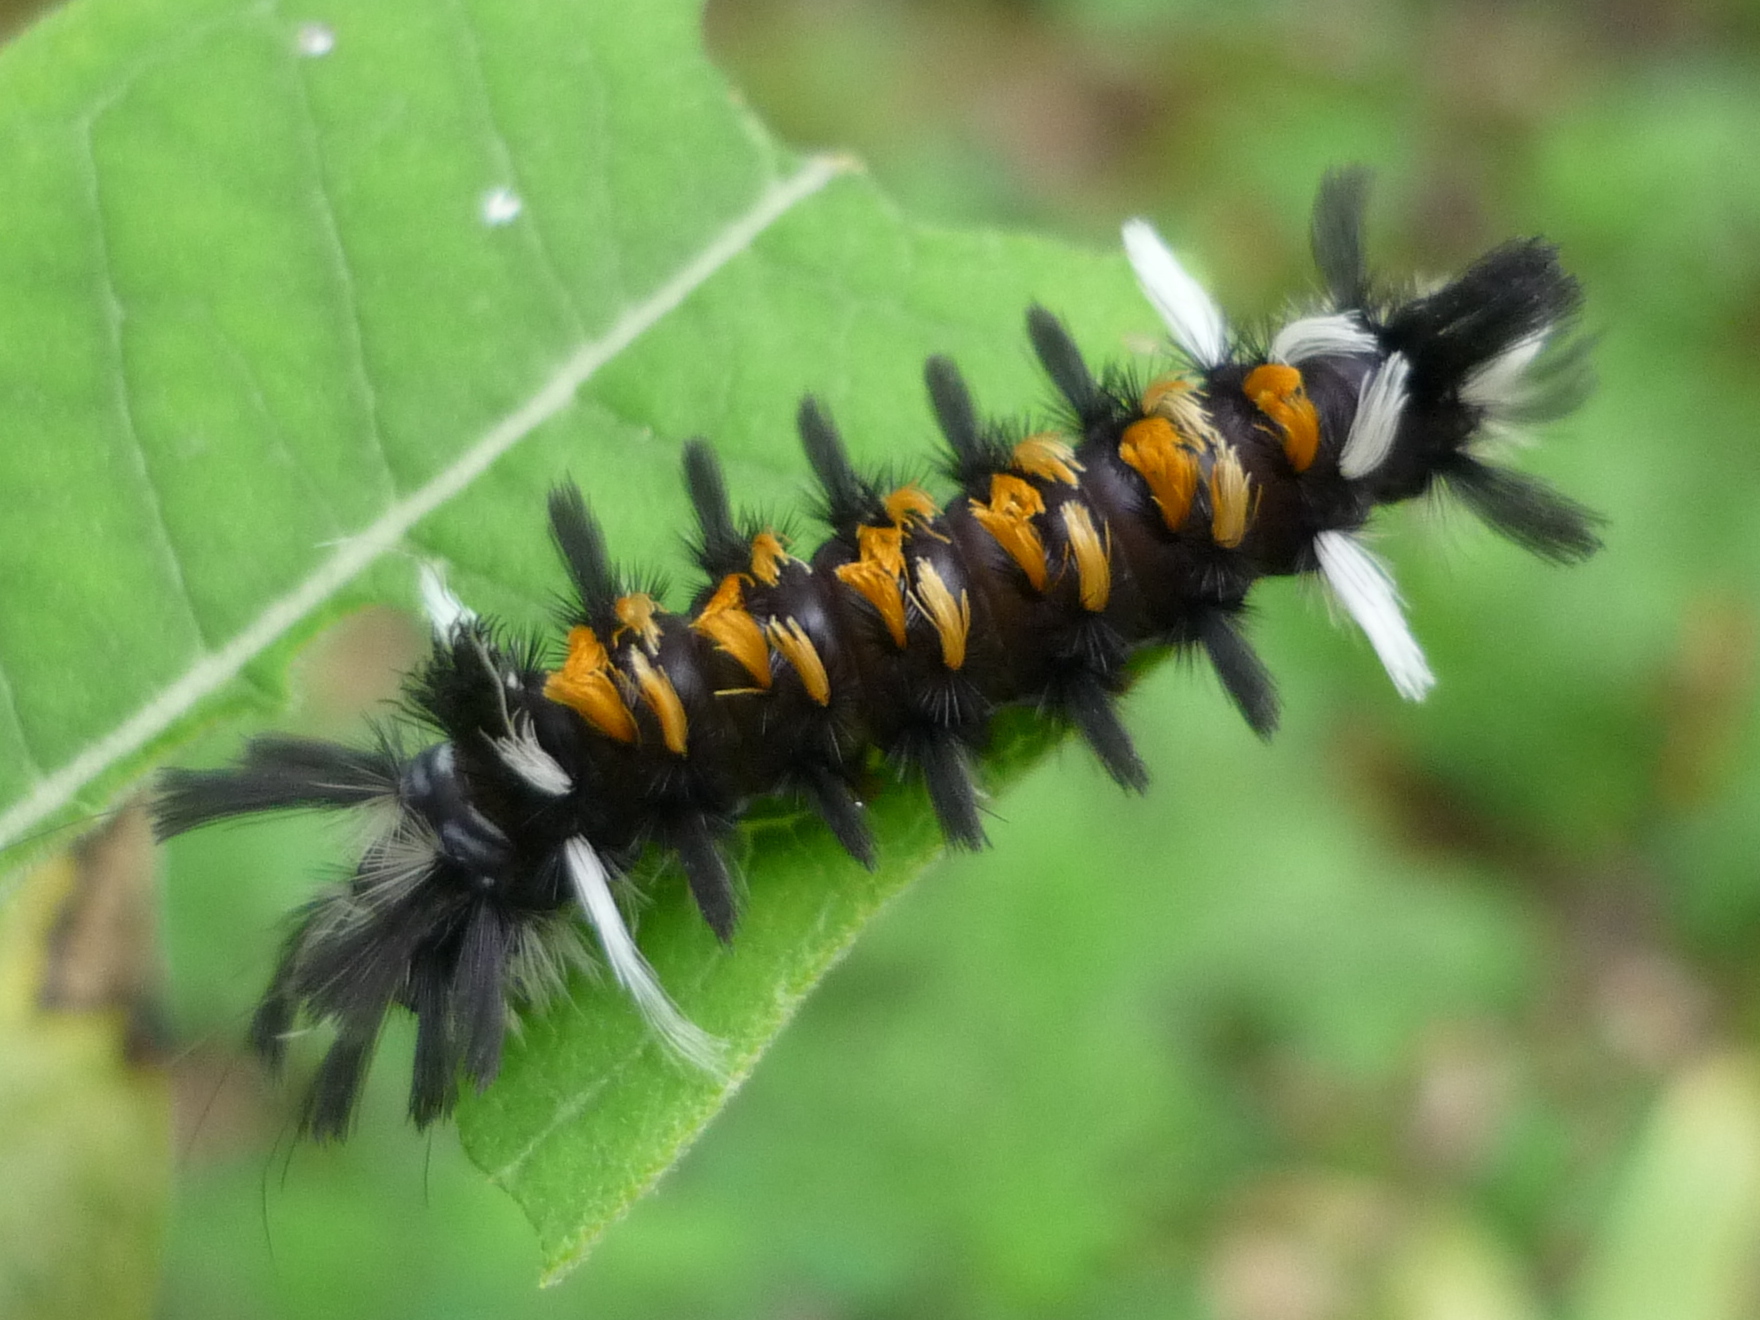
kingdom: Animalia
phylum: Arthropoda
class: Insecta
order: Lepidoptera
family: Erebidae
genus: Euchaetes
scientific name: Euchaetes egle
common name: Milkweed tussock moth
